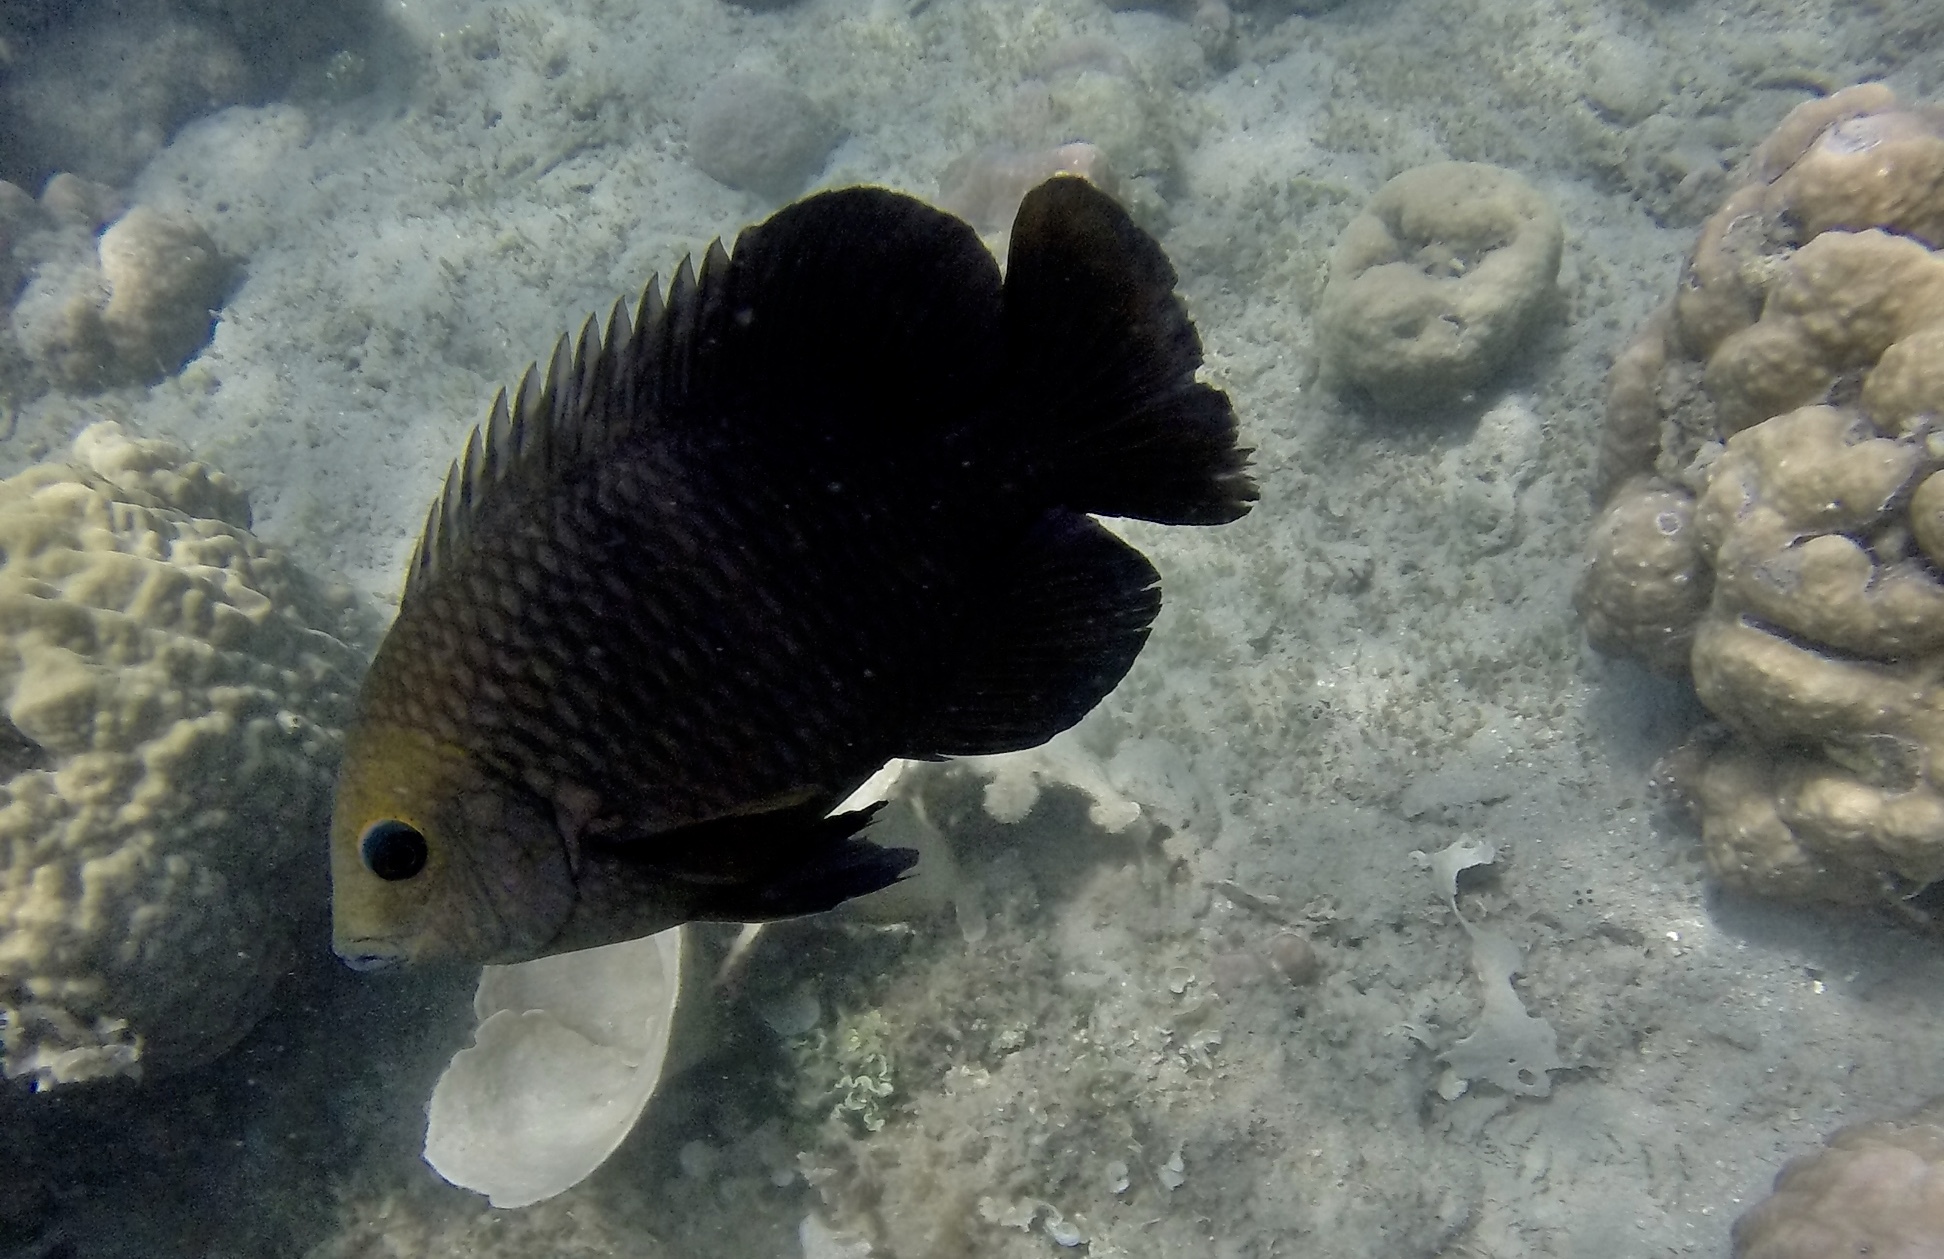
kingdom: Animalia
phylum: Chordata
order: Perciformes
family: Pomacentridae
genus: Hemiglyphidodon
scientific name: Hemiglyphidodon plagiometopon
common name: Lagoon damsel
